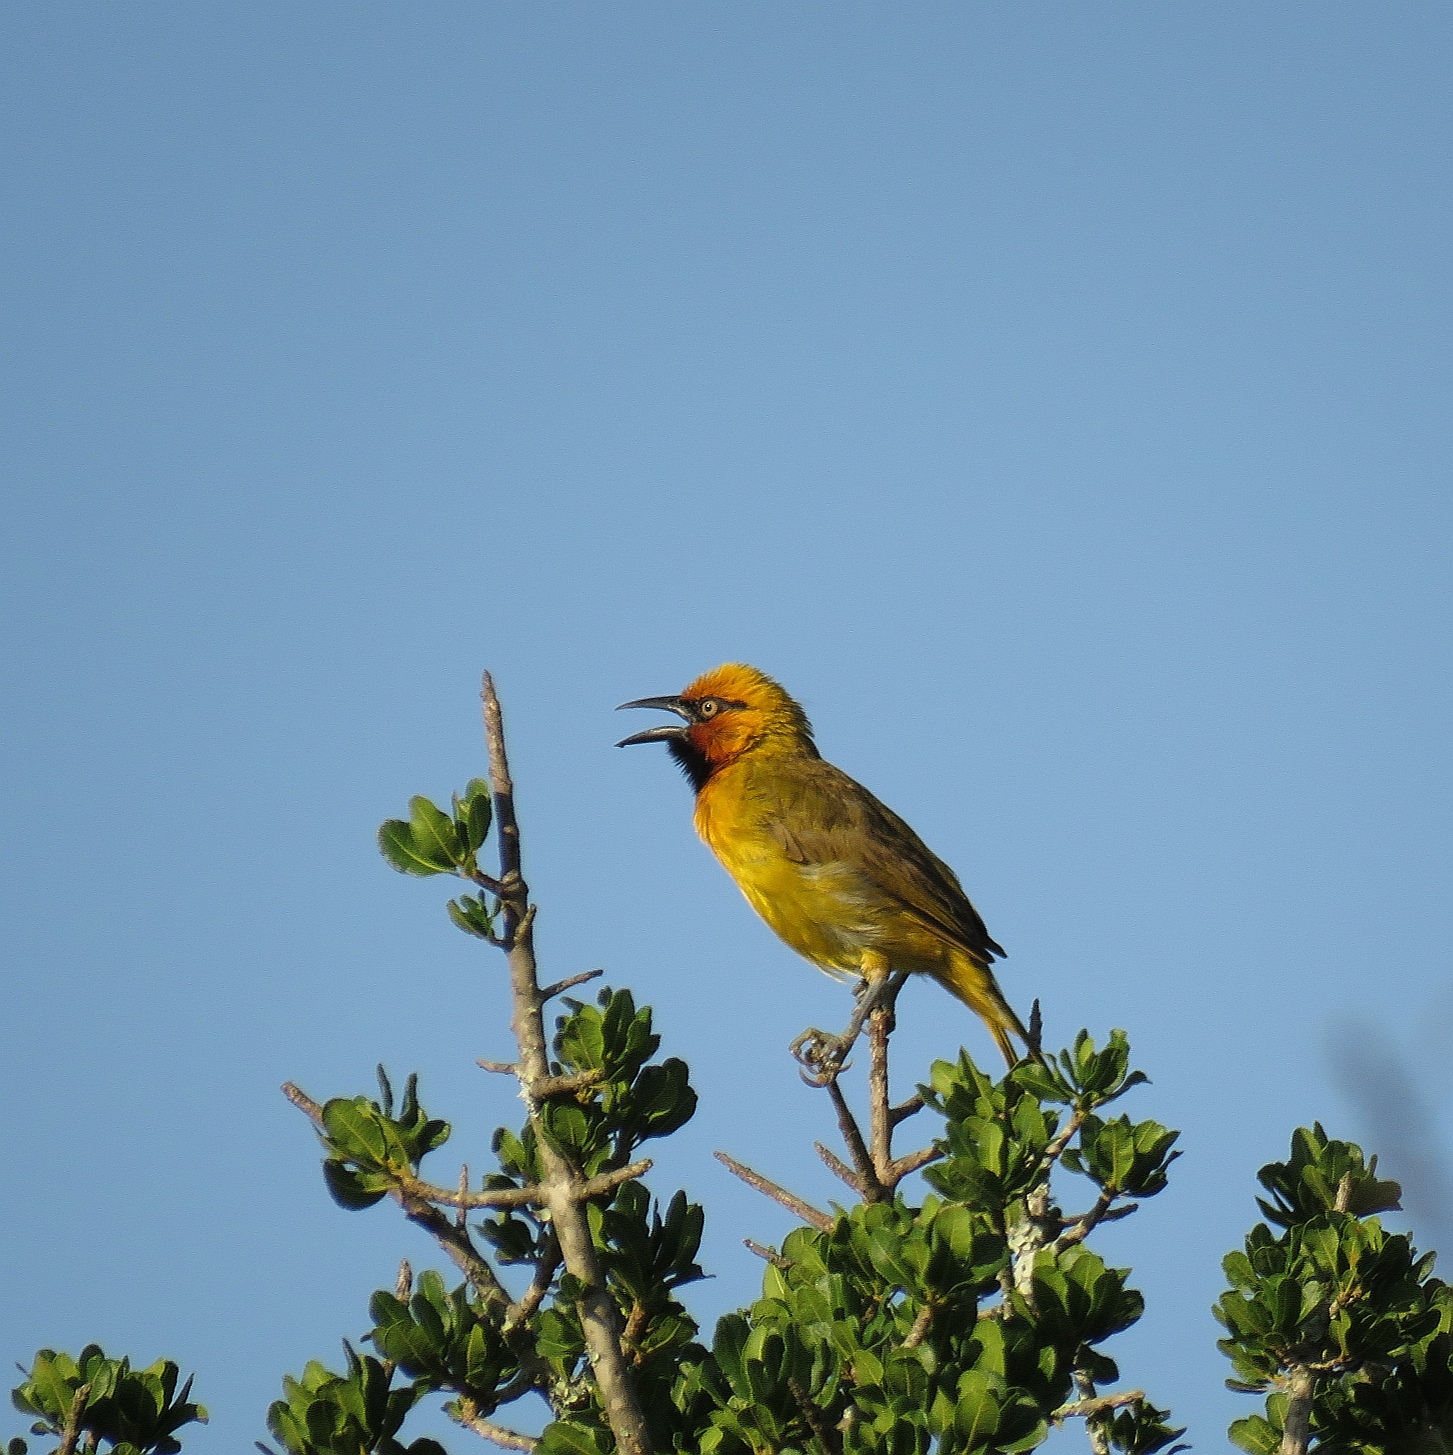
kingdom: Animalia
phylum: Chordata
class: Aves
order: Passeriformes
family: Ploceidae
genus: Ploceus
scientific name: Ploceus ocularis
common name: Spectacled weaver
